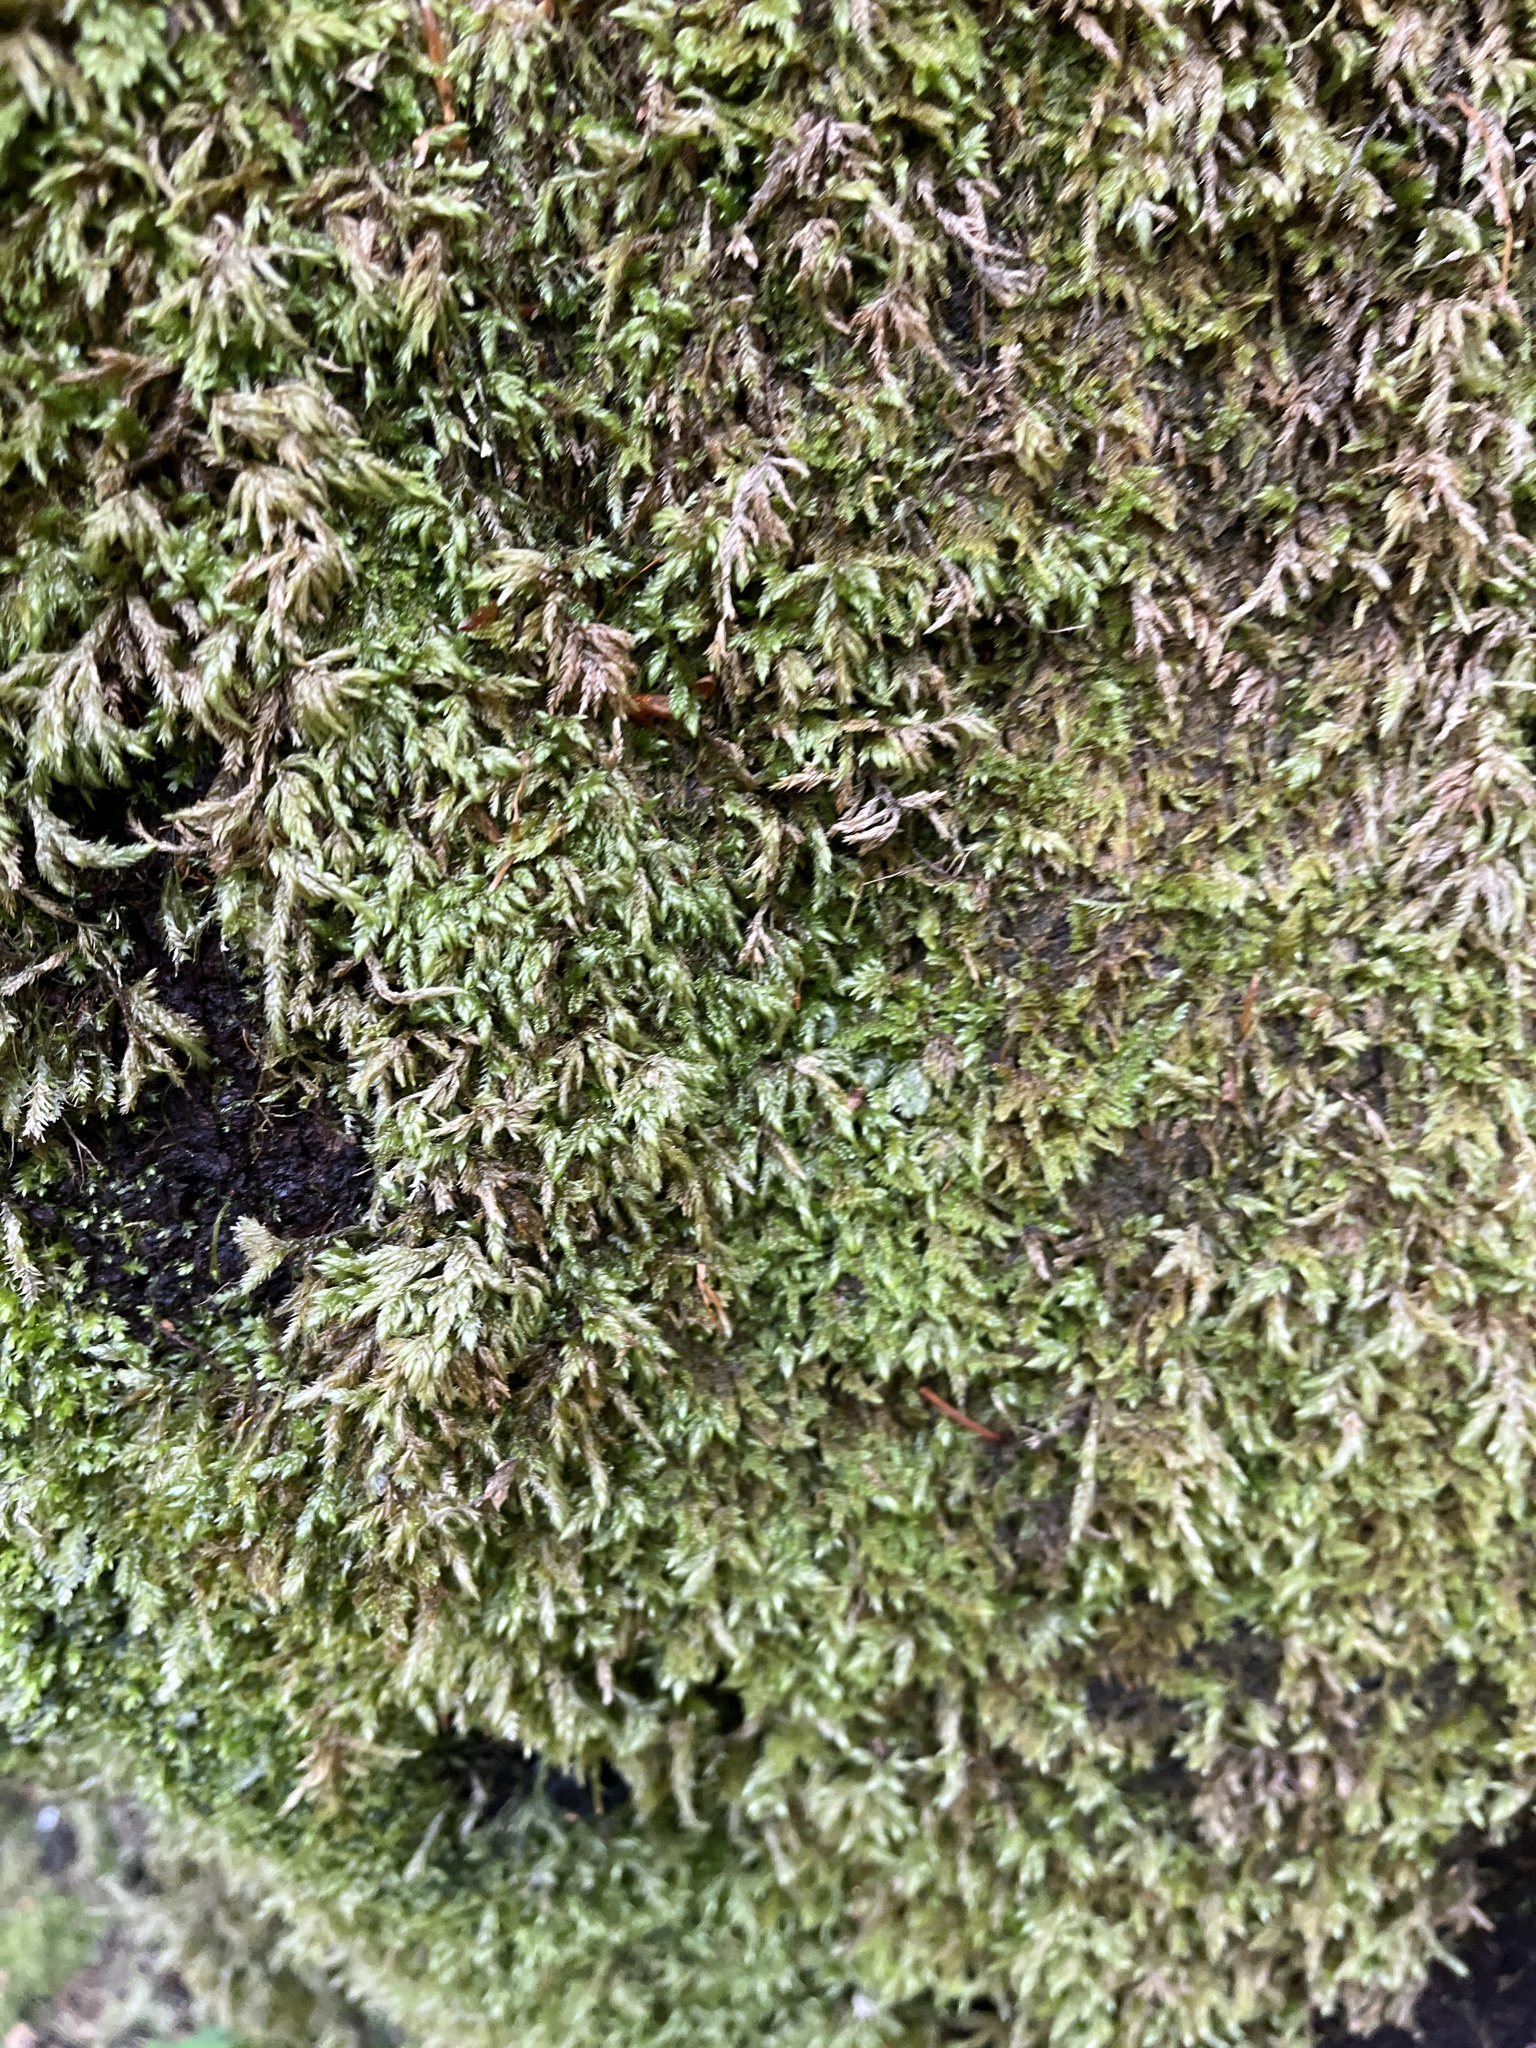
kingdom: Plantae
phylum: Bryophyta
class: Bryopsida
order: Hypnales
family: Lembophyllaceae
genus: Isothecium
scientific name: Isothecium alopecuroides
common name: Larger mouse-tail moss
